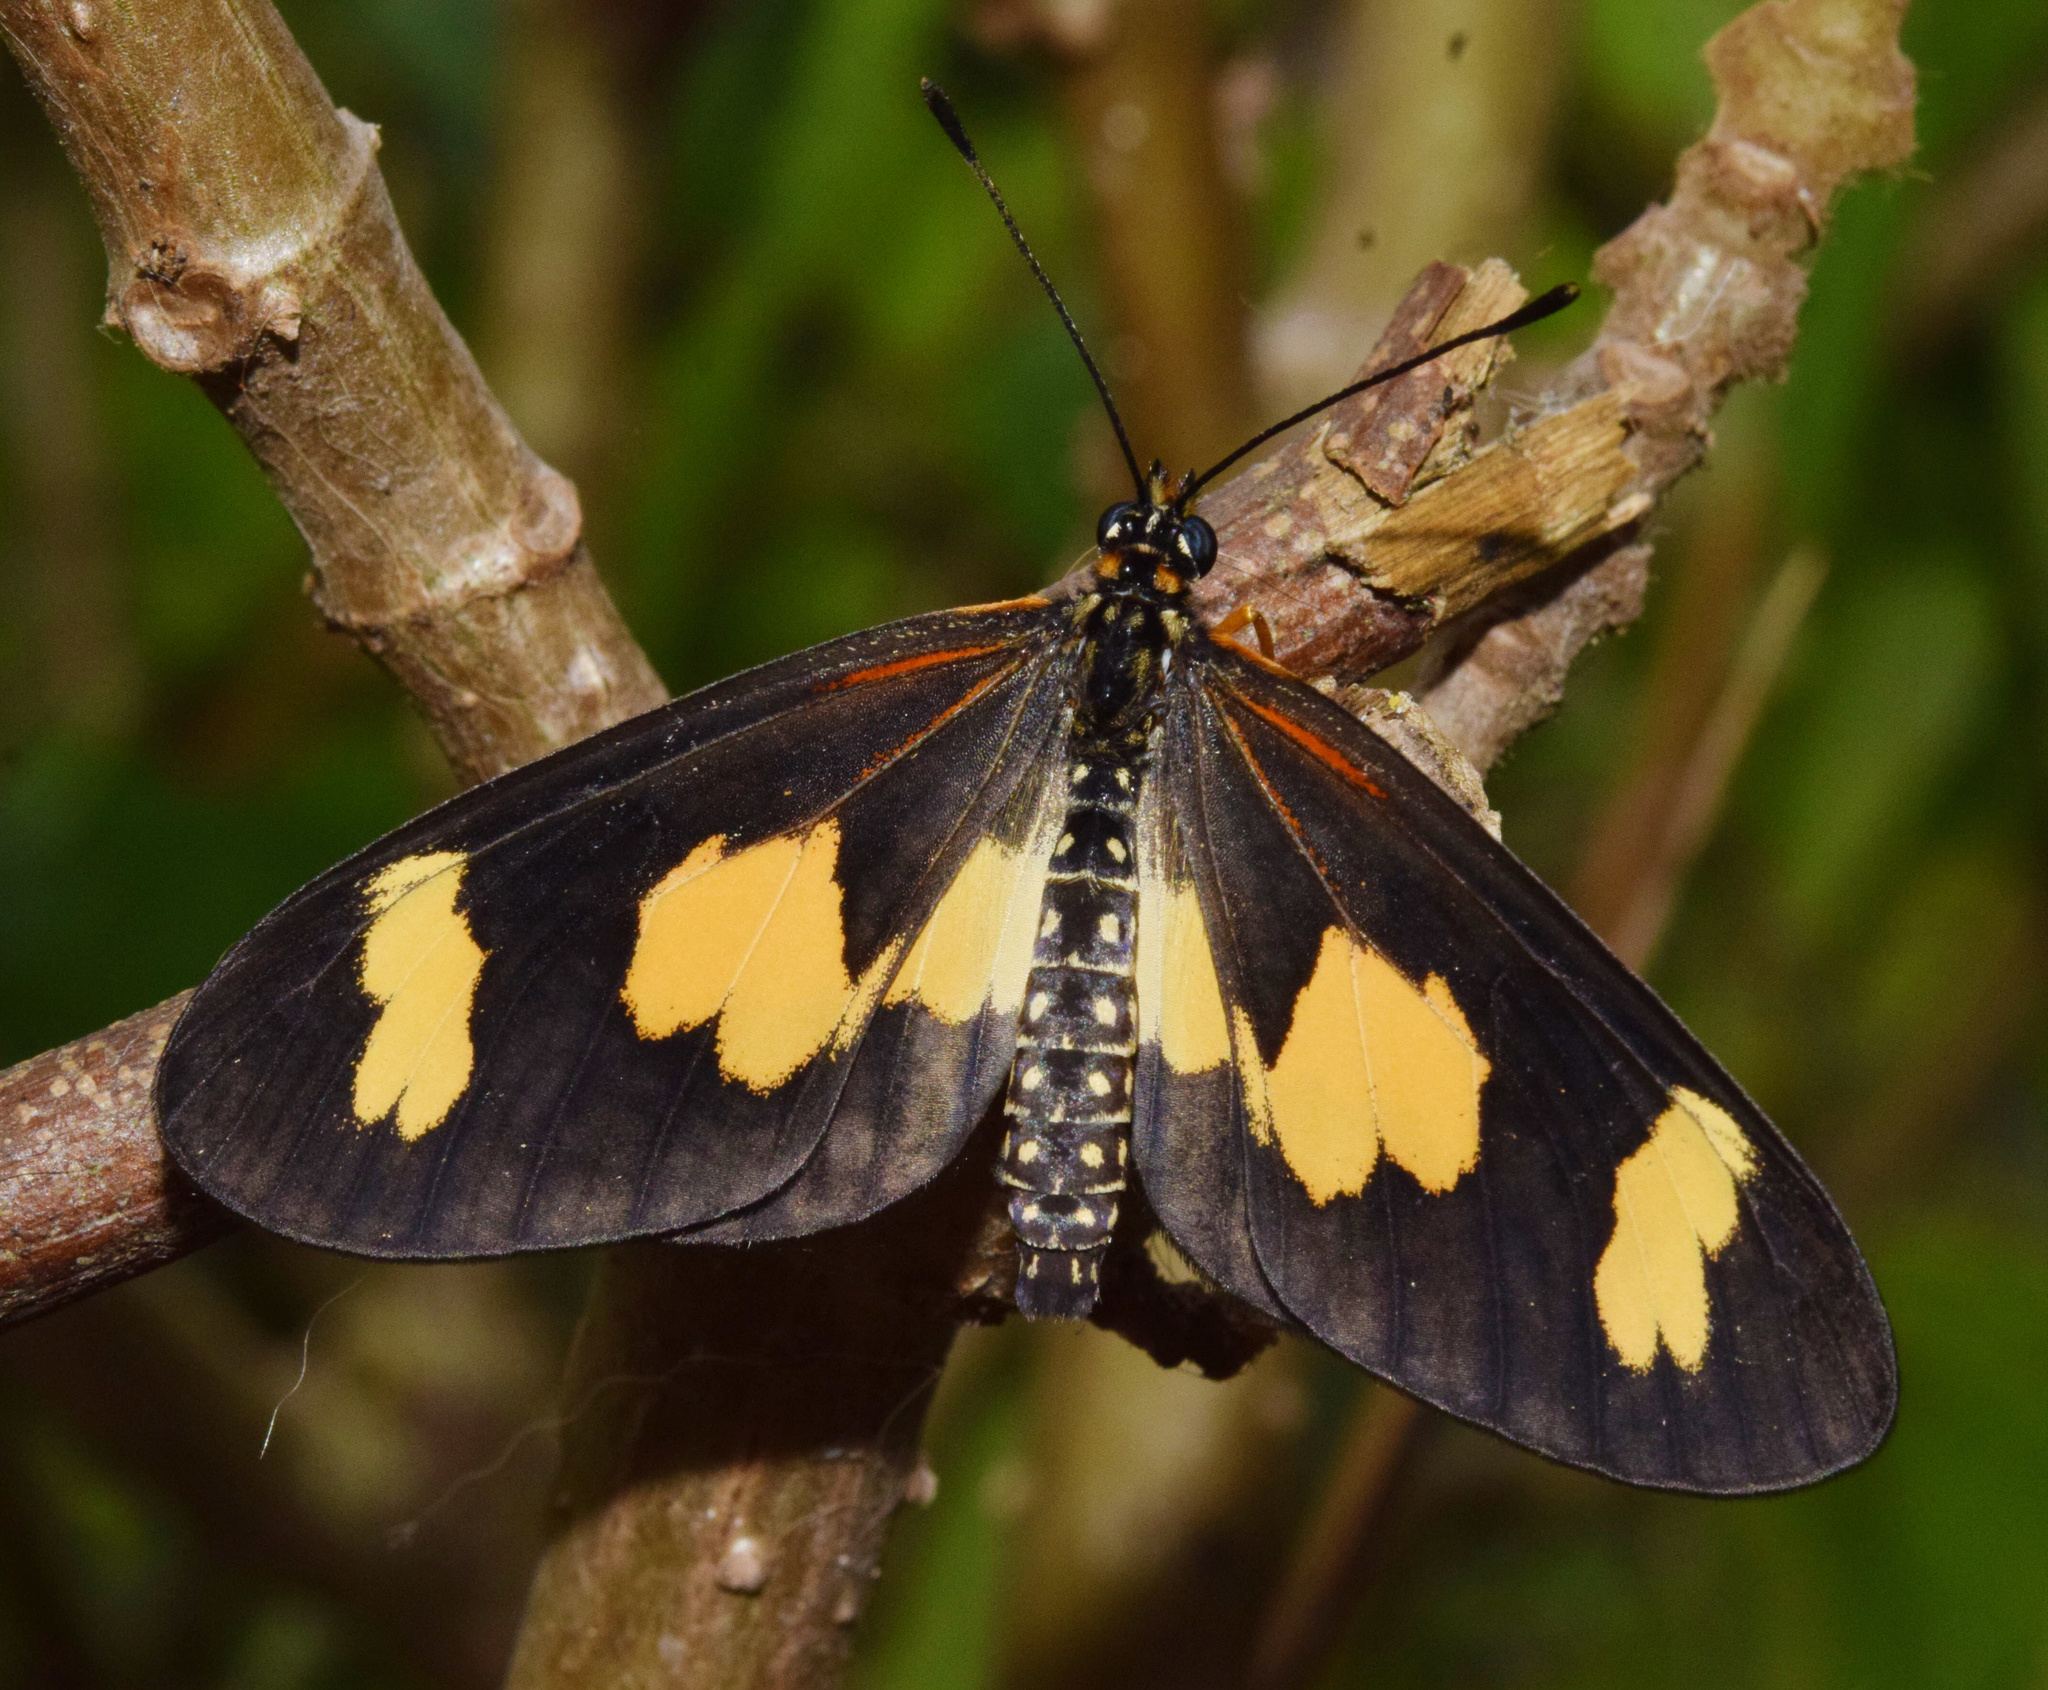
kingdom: Animalia
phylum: Arthropoda
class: Insecta
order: Lepidoptera
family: Nymphalidae
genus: Acraea
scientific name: Acraea cabira
